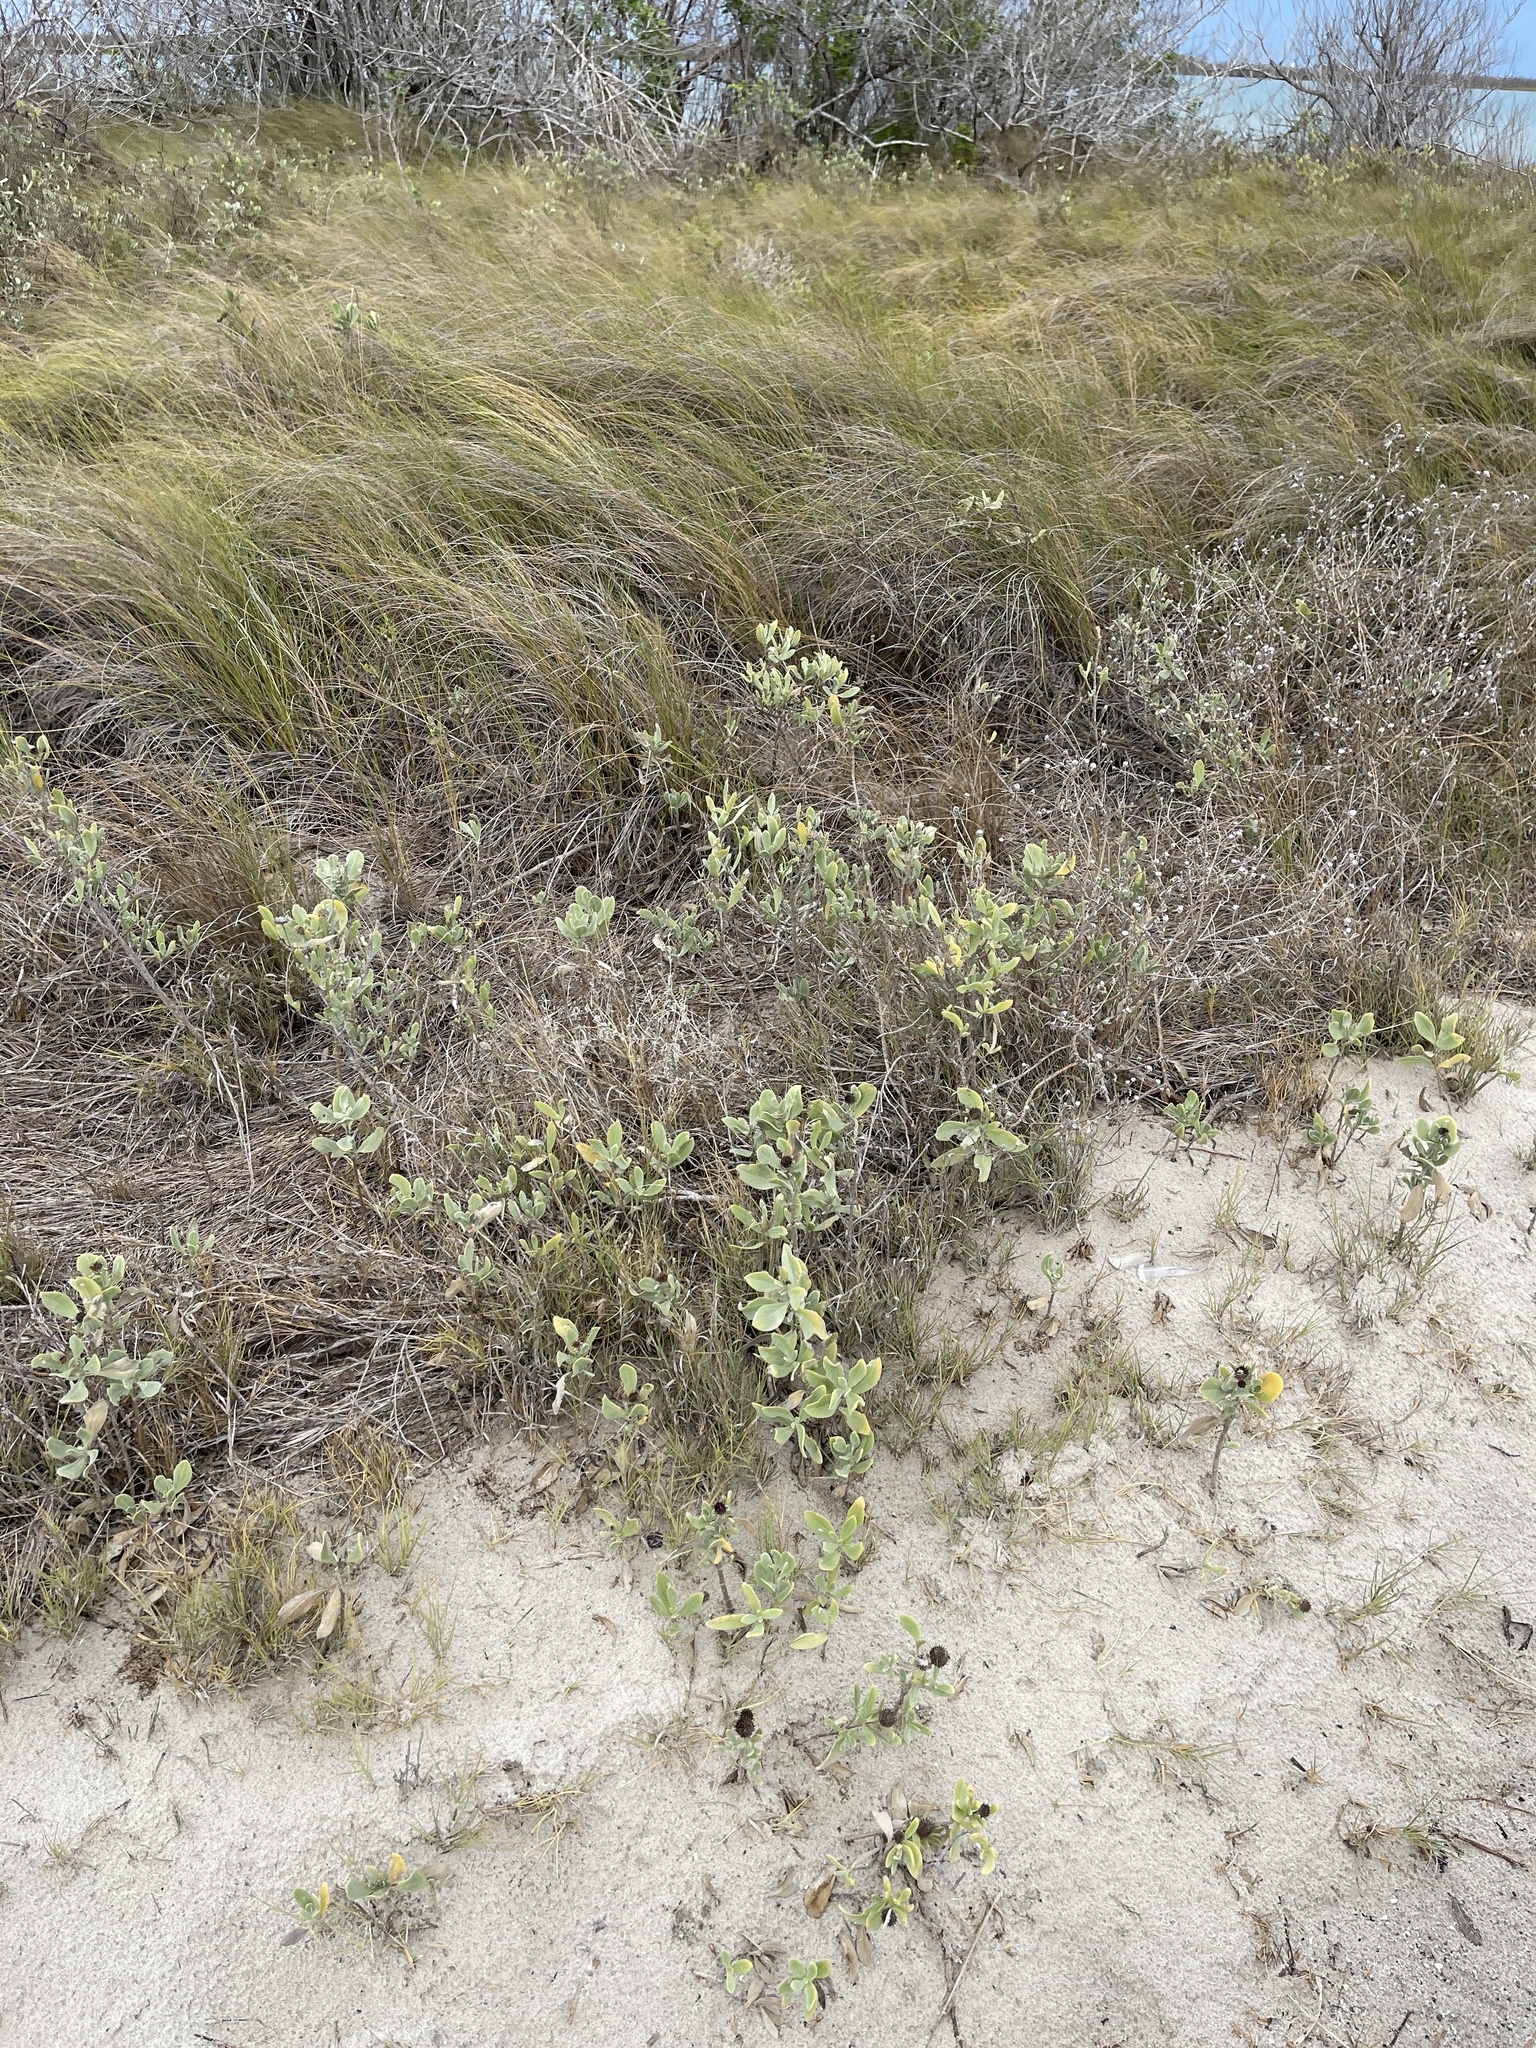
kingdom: Plantae
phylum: Tracheophyta
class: Magnoliopsida
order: Asterales
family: Asteraceae
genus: Borrichia
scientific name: Borrichia frutescens
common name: Sea oxeye
